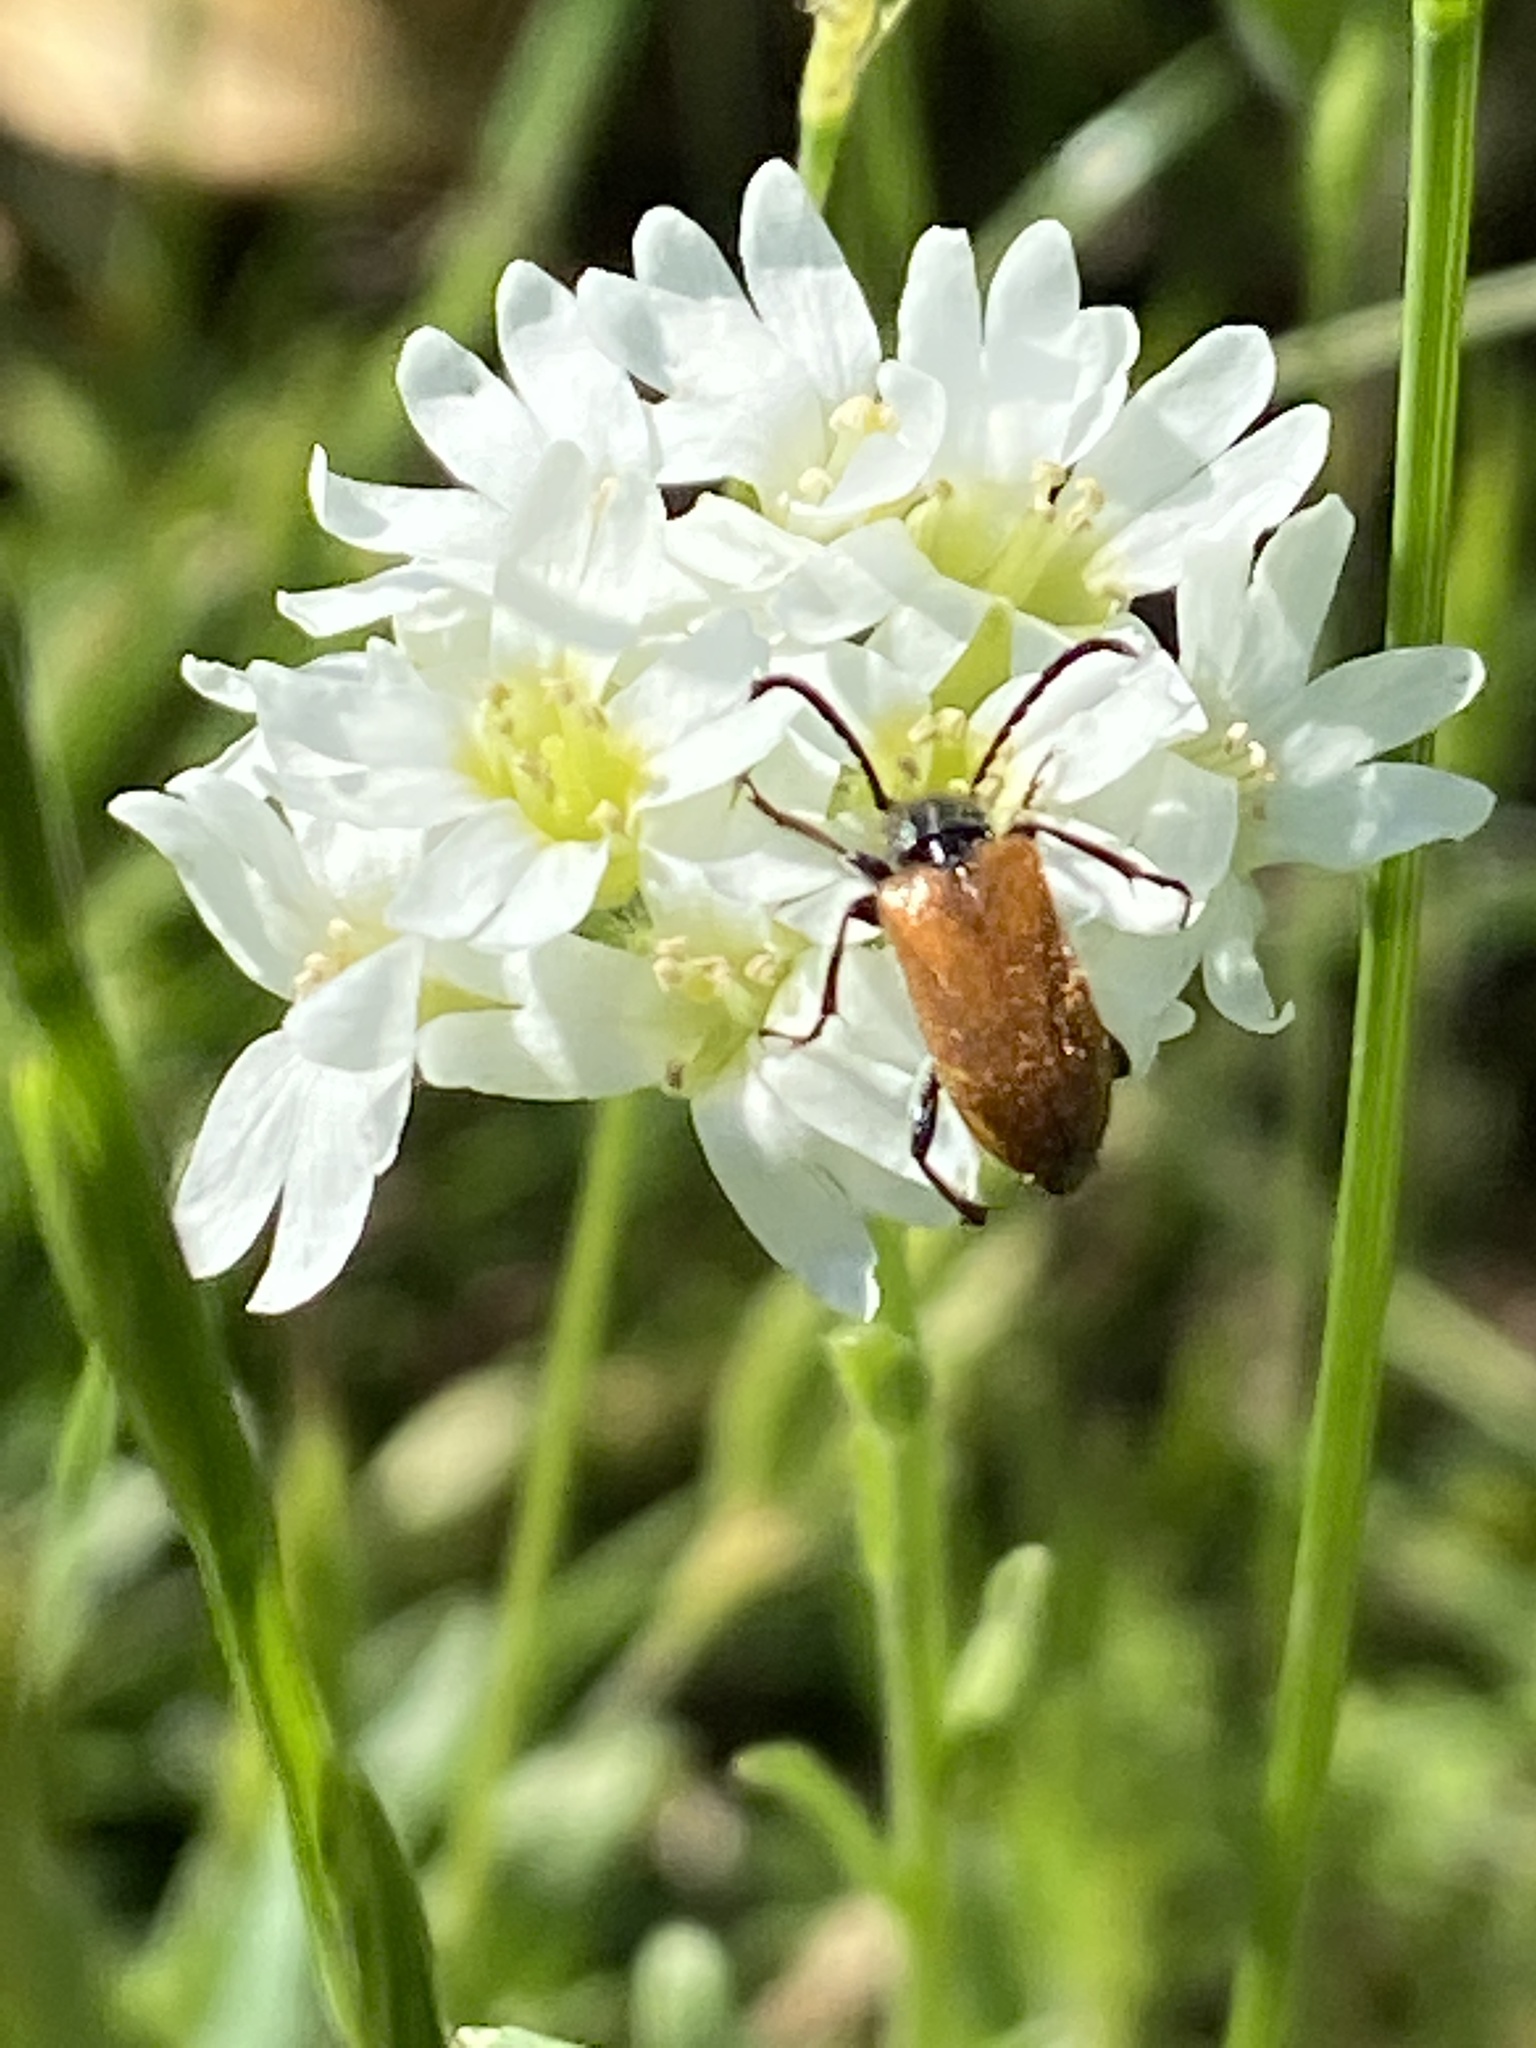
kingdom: Animalia
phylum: Arthropoda
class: Insecta
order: Coleoptera
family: Cerambycidae
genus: Pseudovadonia
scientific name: Pseudovadonia livida
